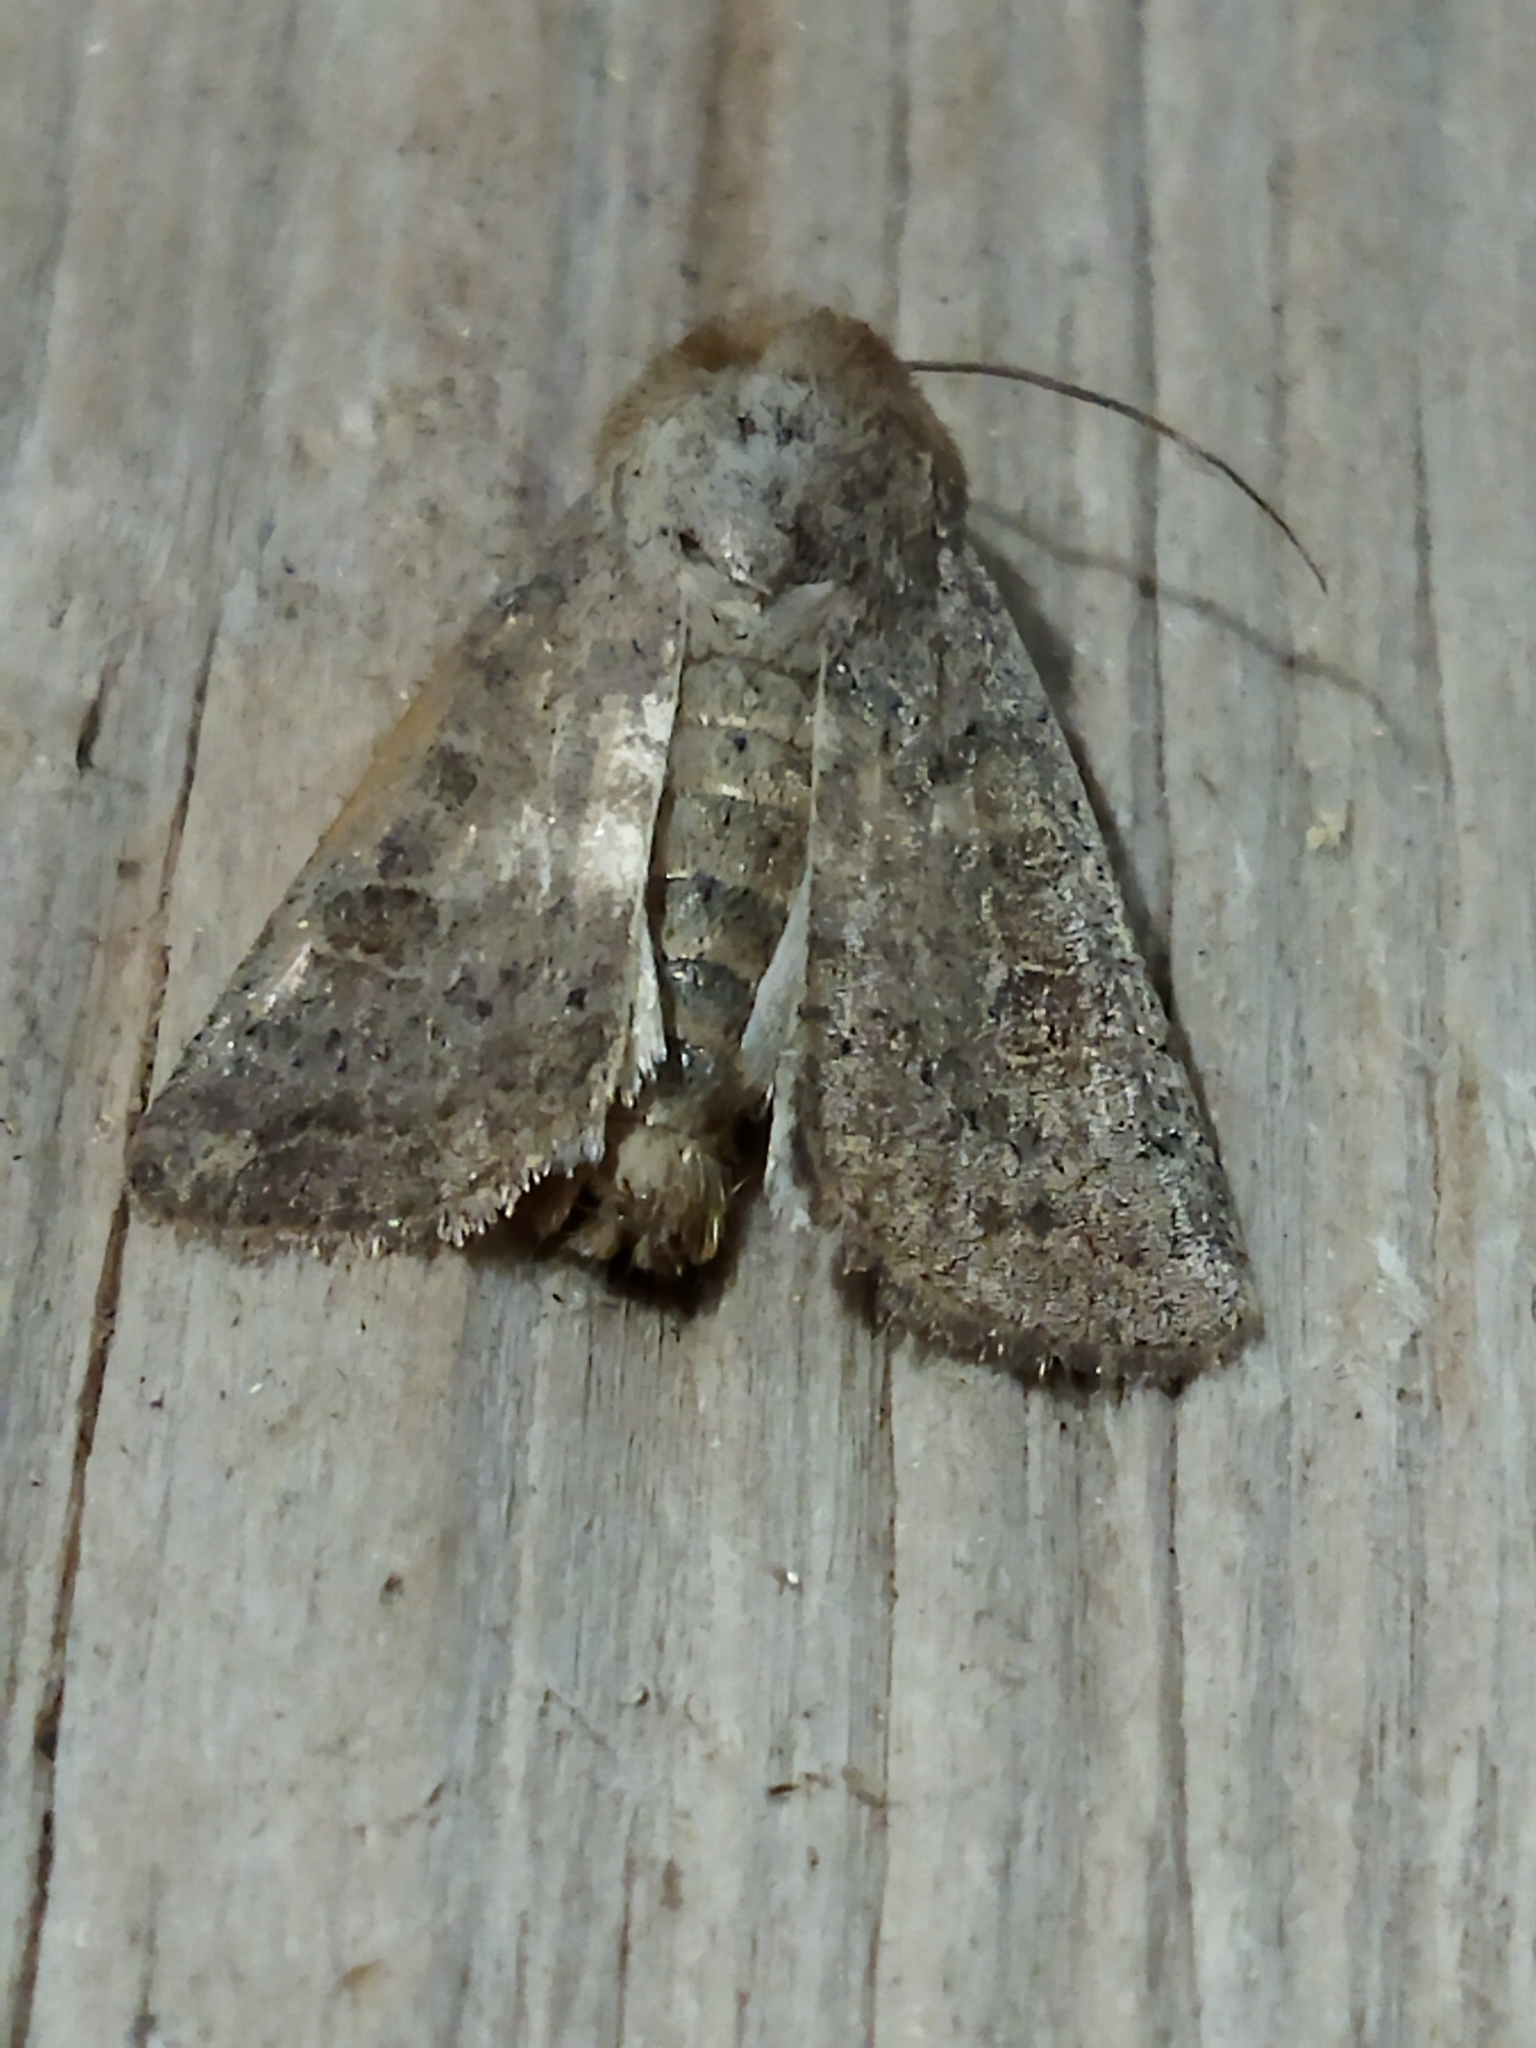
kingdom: Animalia
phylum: Arthropoda
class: Insecta
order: Lepidoptera
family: Noctuidae
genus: Hoplodrina
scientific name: Hoplodrina ambigua
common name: Vine's rustic
